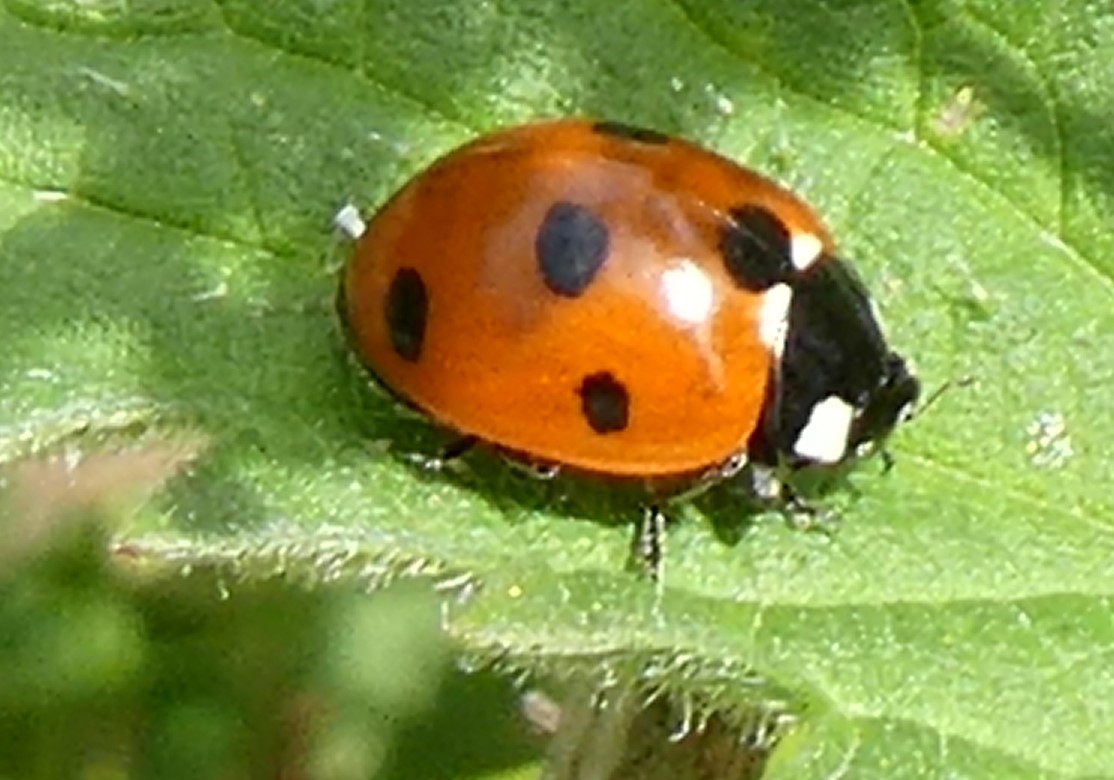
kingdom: Animalia
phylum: Arthropoda
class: Insecta
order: Coleoptera
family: Coccinellidae
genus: Coccinella
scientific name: Coccinella septempunctata
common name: Sevenspotted lady beetle
